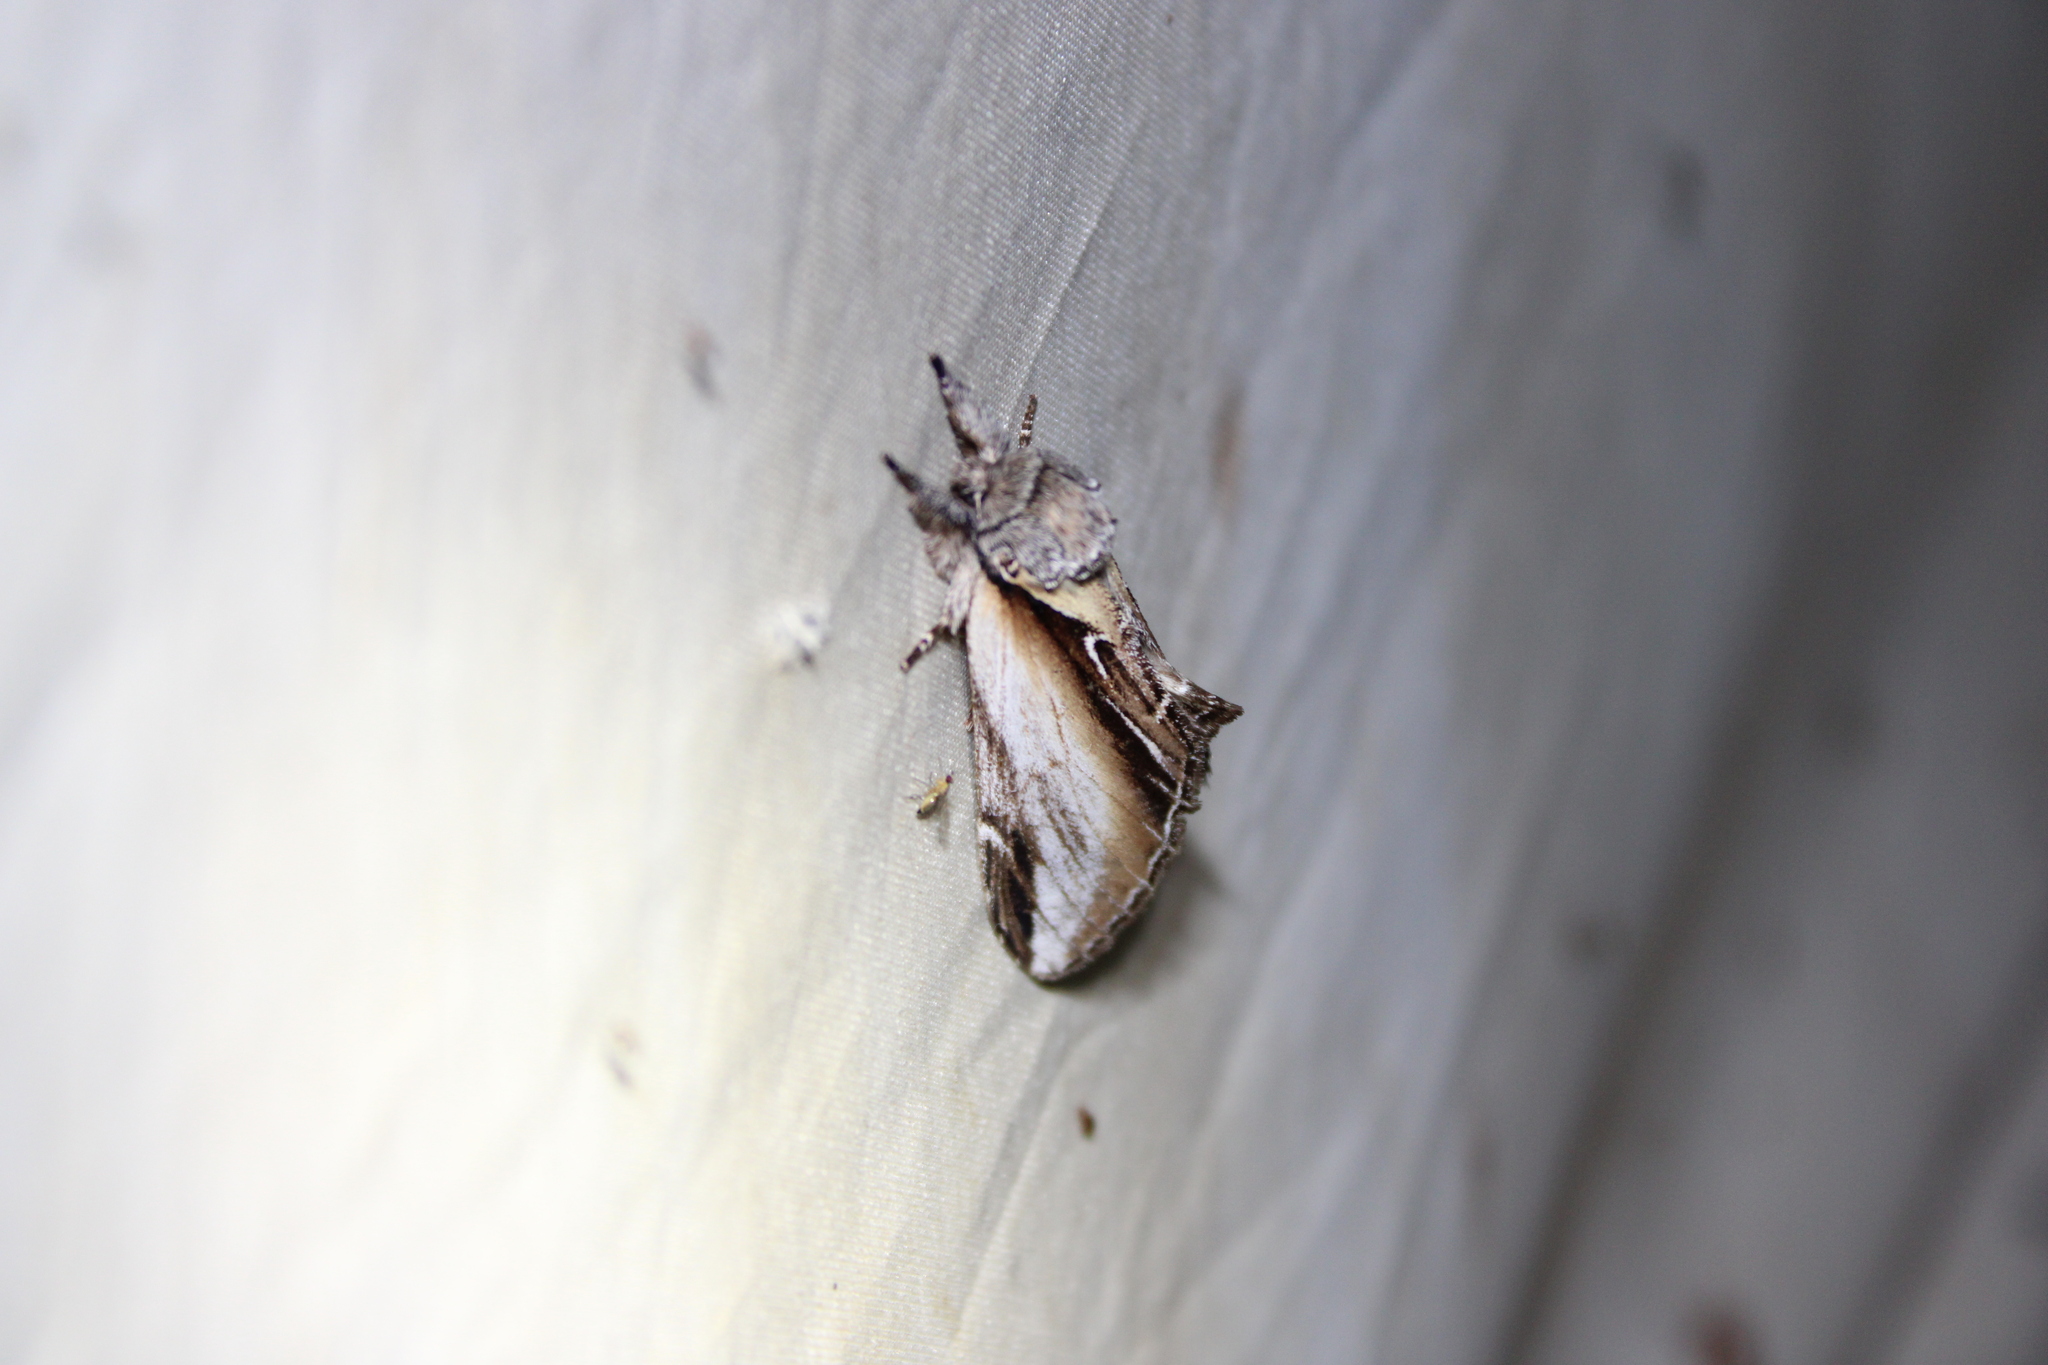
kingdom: Animalia
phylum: Arthropoda
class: Insecta
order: Lepidoptera
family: Notodontidae
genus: Pheosia
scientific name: Pheosia rimosa
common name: Black-rimmed prominent
